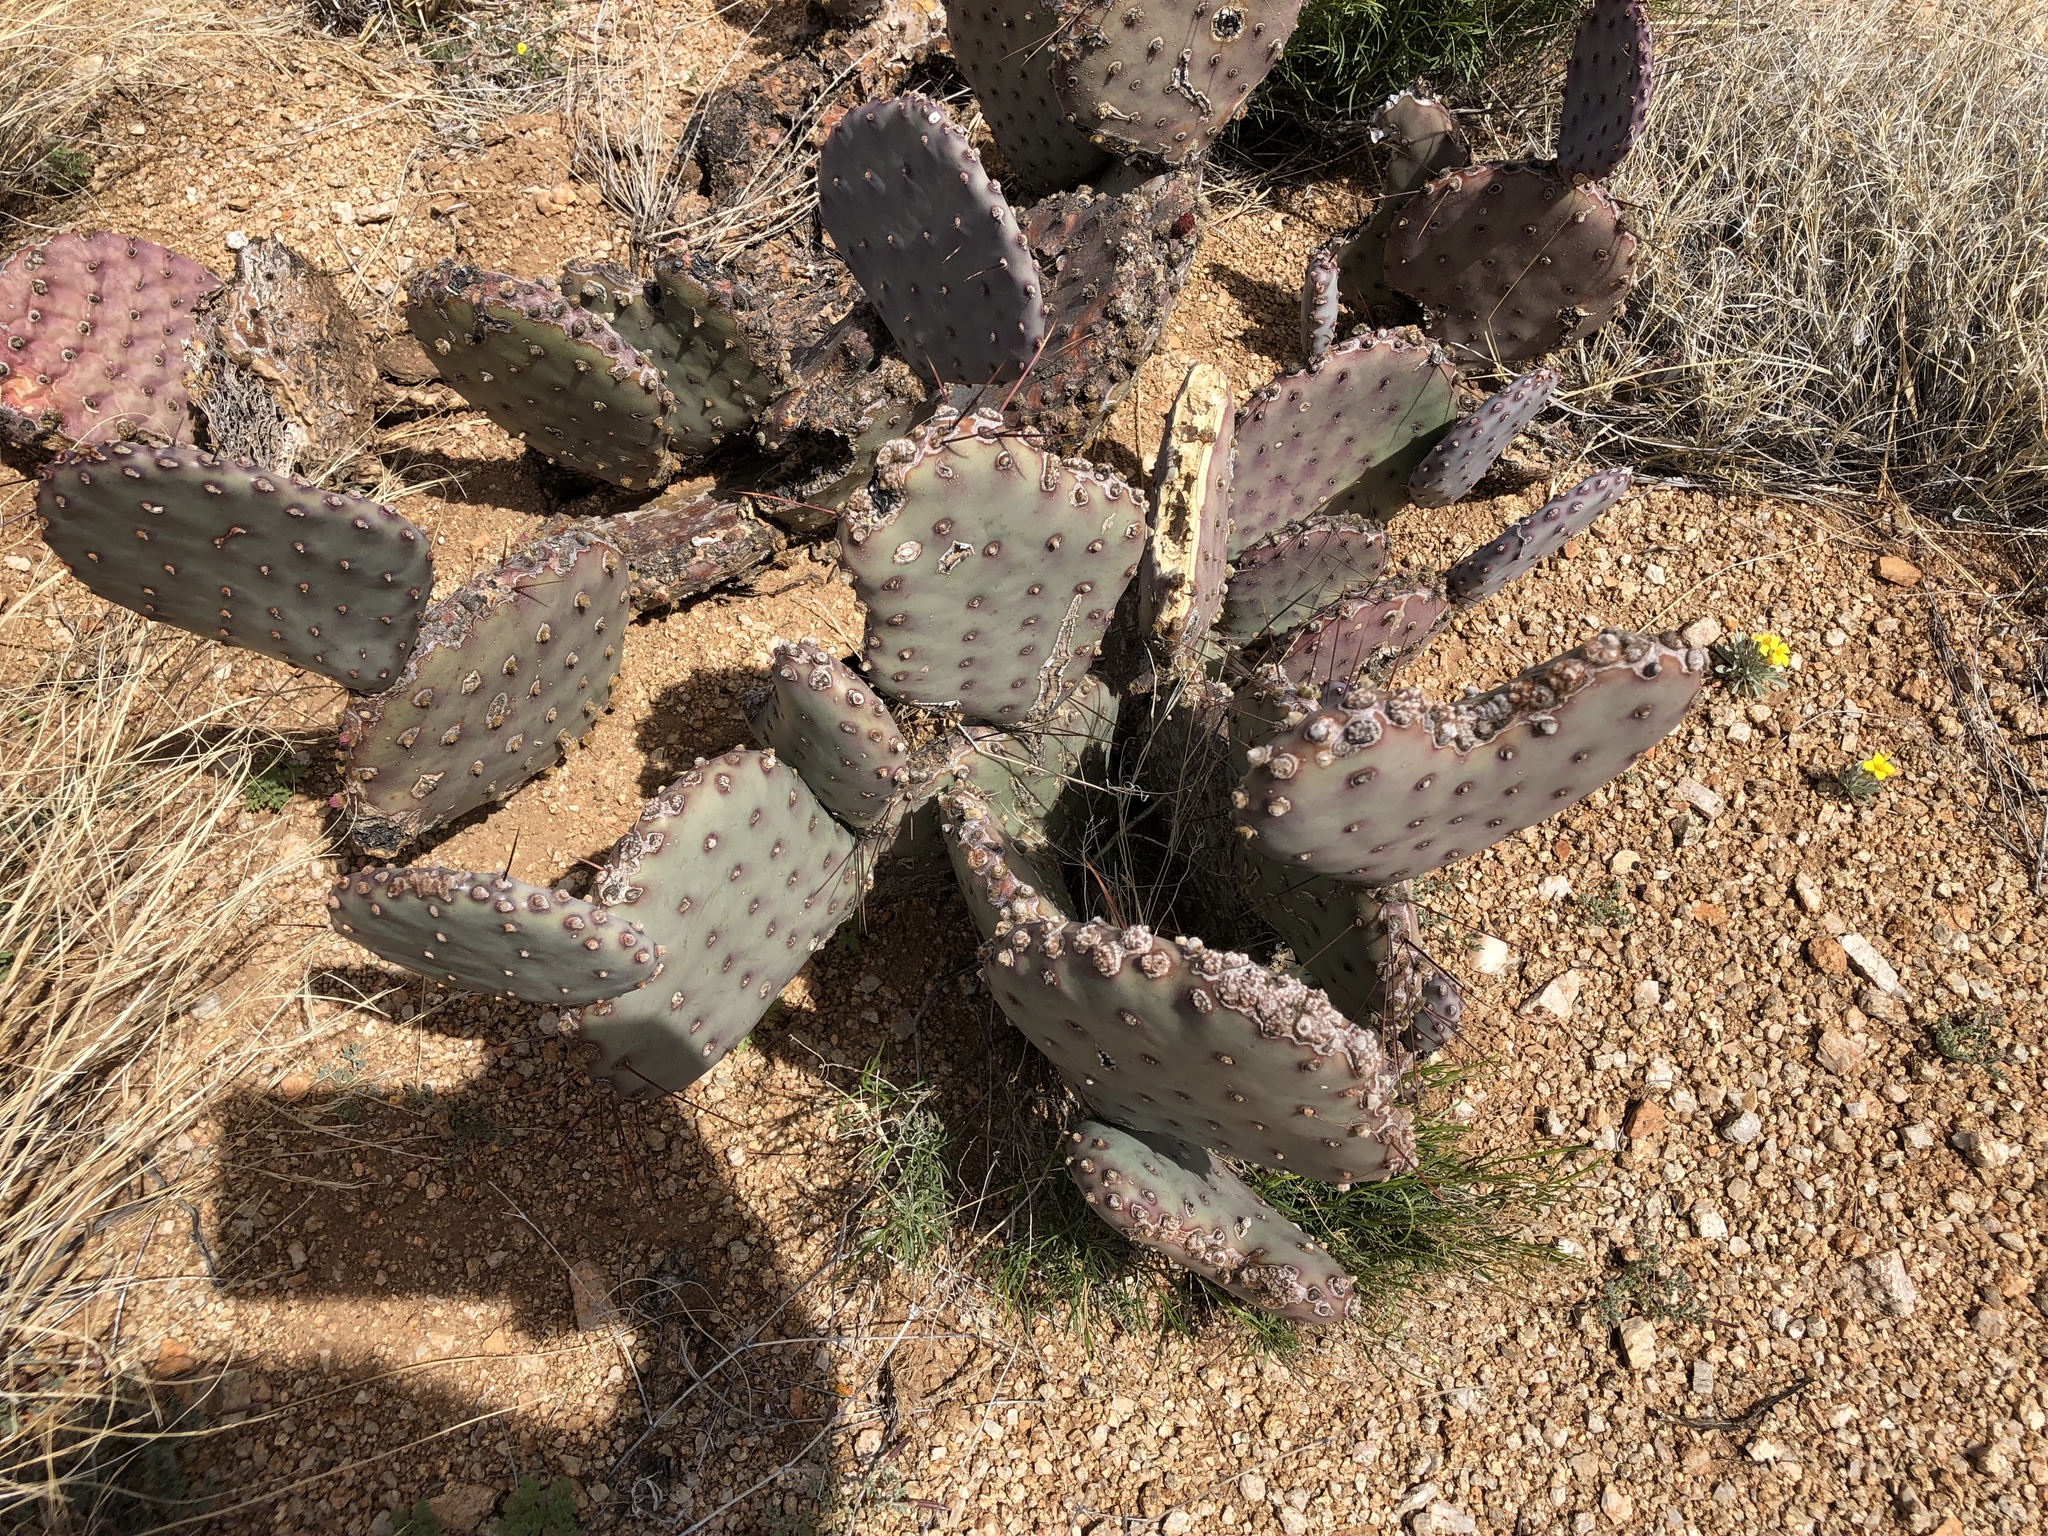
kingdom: Plantae
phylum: Tracheophyta
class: Magnoliopsida
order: Caryophyllales
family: Cactaceae
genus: Opuntia
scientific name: Opuntia macrocentra
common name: Purple prickly-pear
